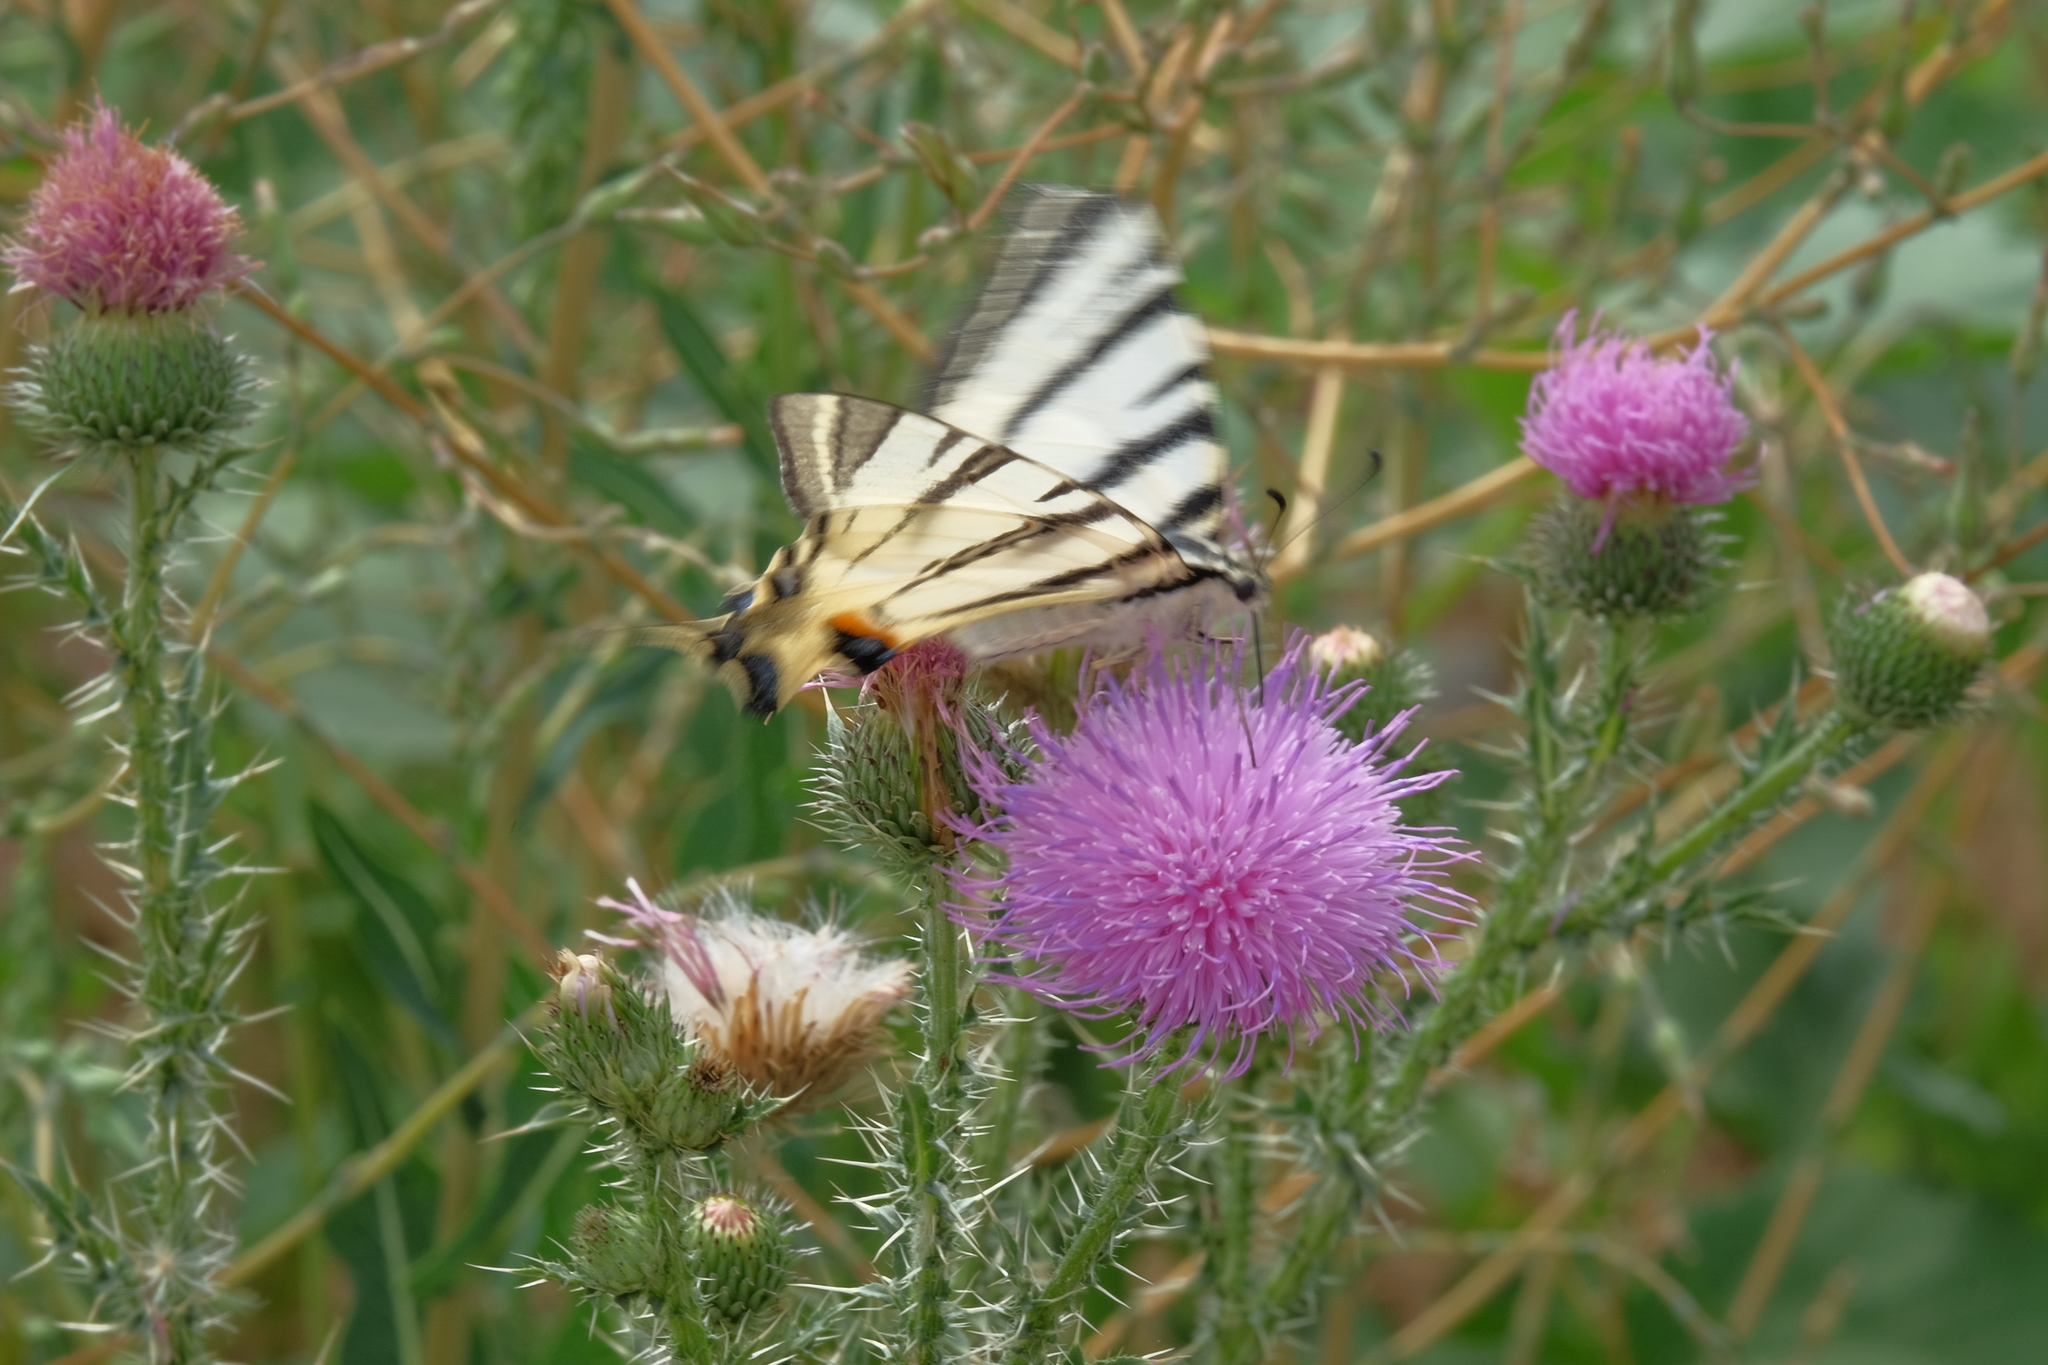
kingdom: Animalia
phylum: Arthropoda
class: Insecta
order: Lepidoptera
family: Papilionidae
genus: Iphiclides
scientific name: Iphiclides podalirius
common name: Scarce swallowtail
